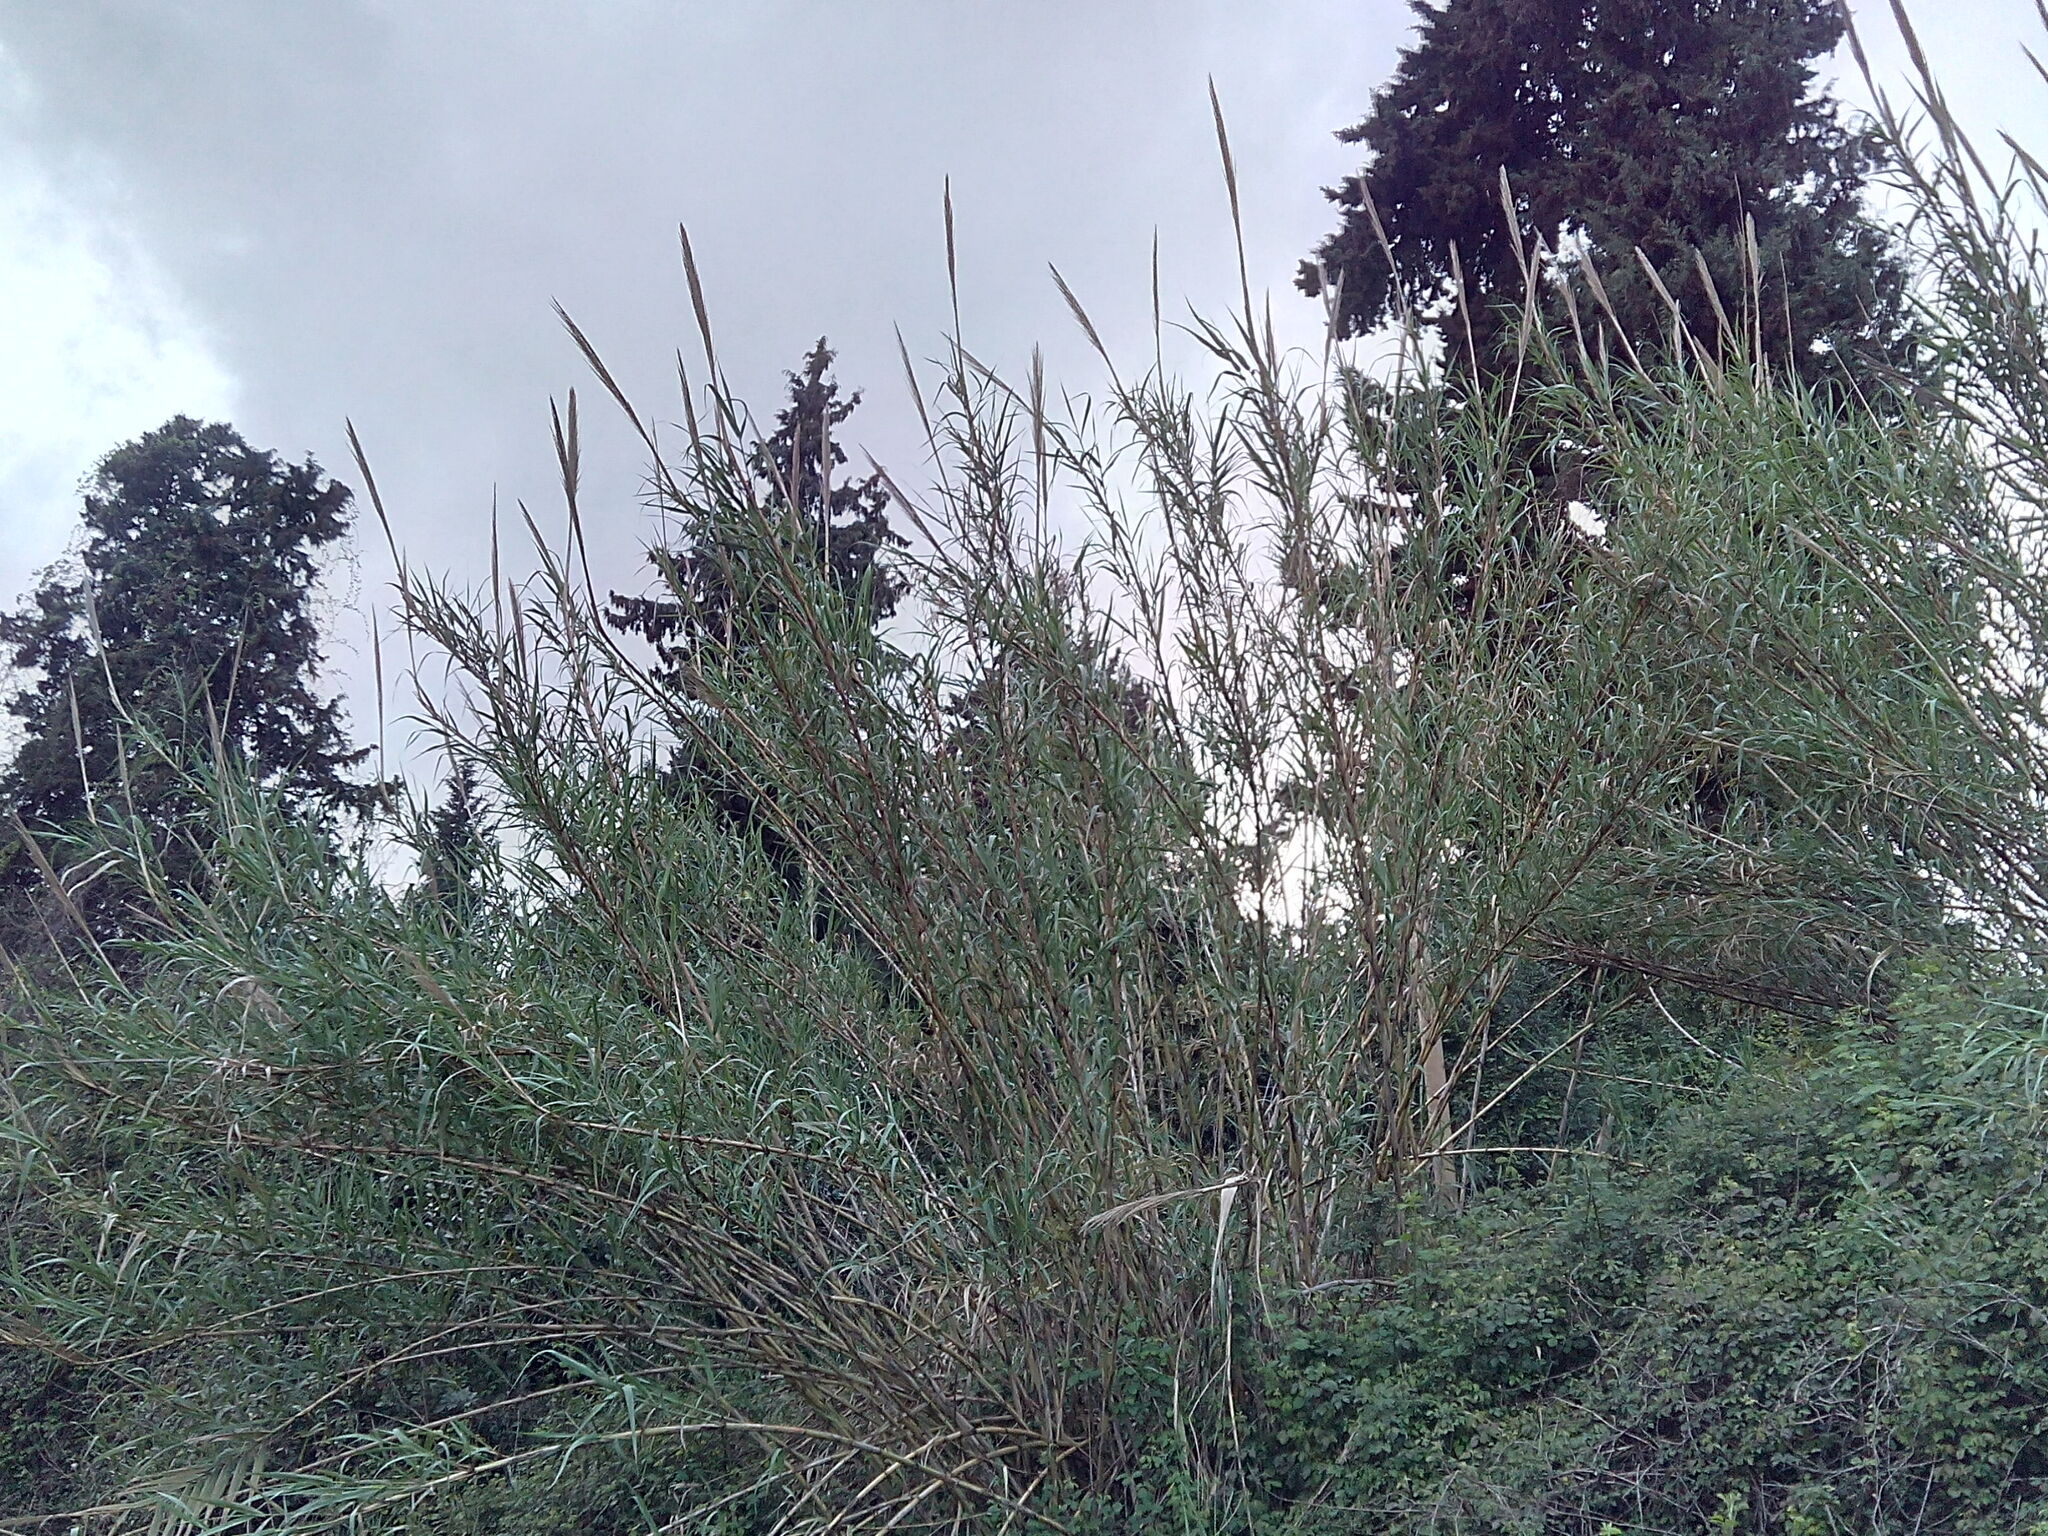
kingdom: Plantae
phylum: Tracheophyta
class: Liliopsida
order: Poales
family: Poaceae
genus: Arundo
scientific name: Arundo donax
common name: Giant reed
